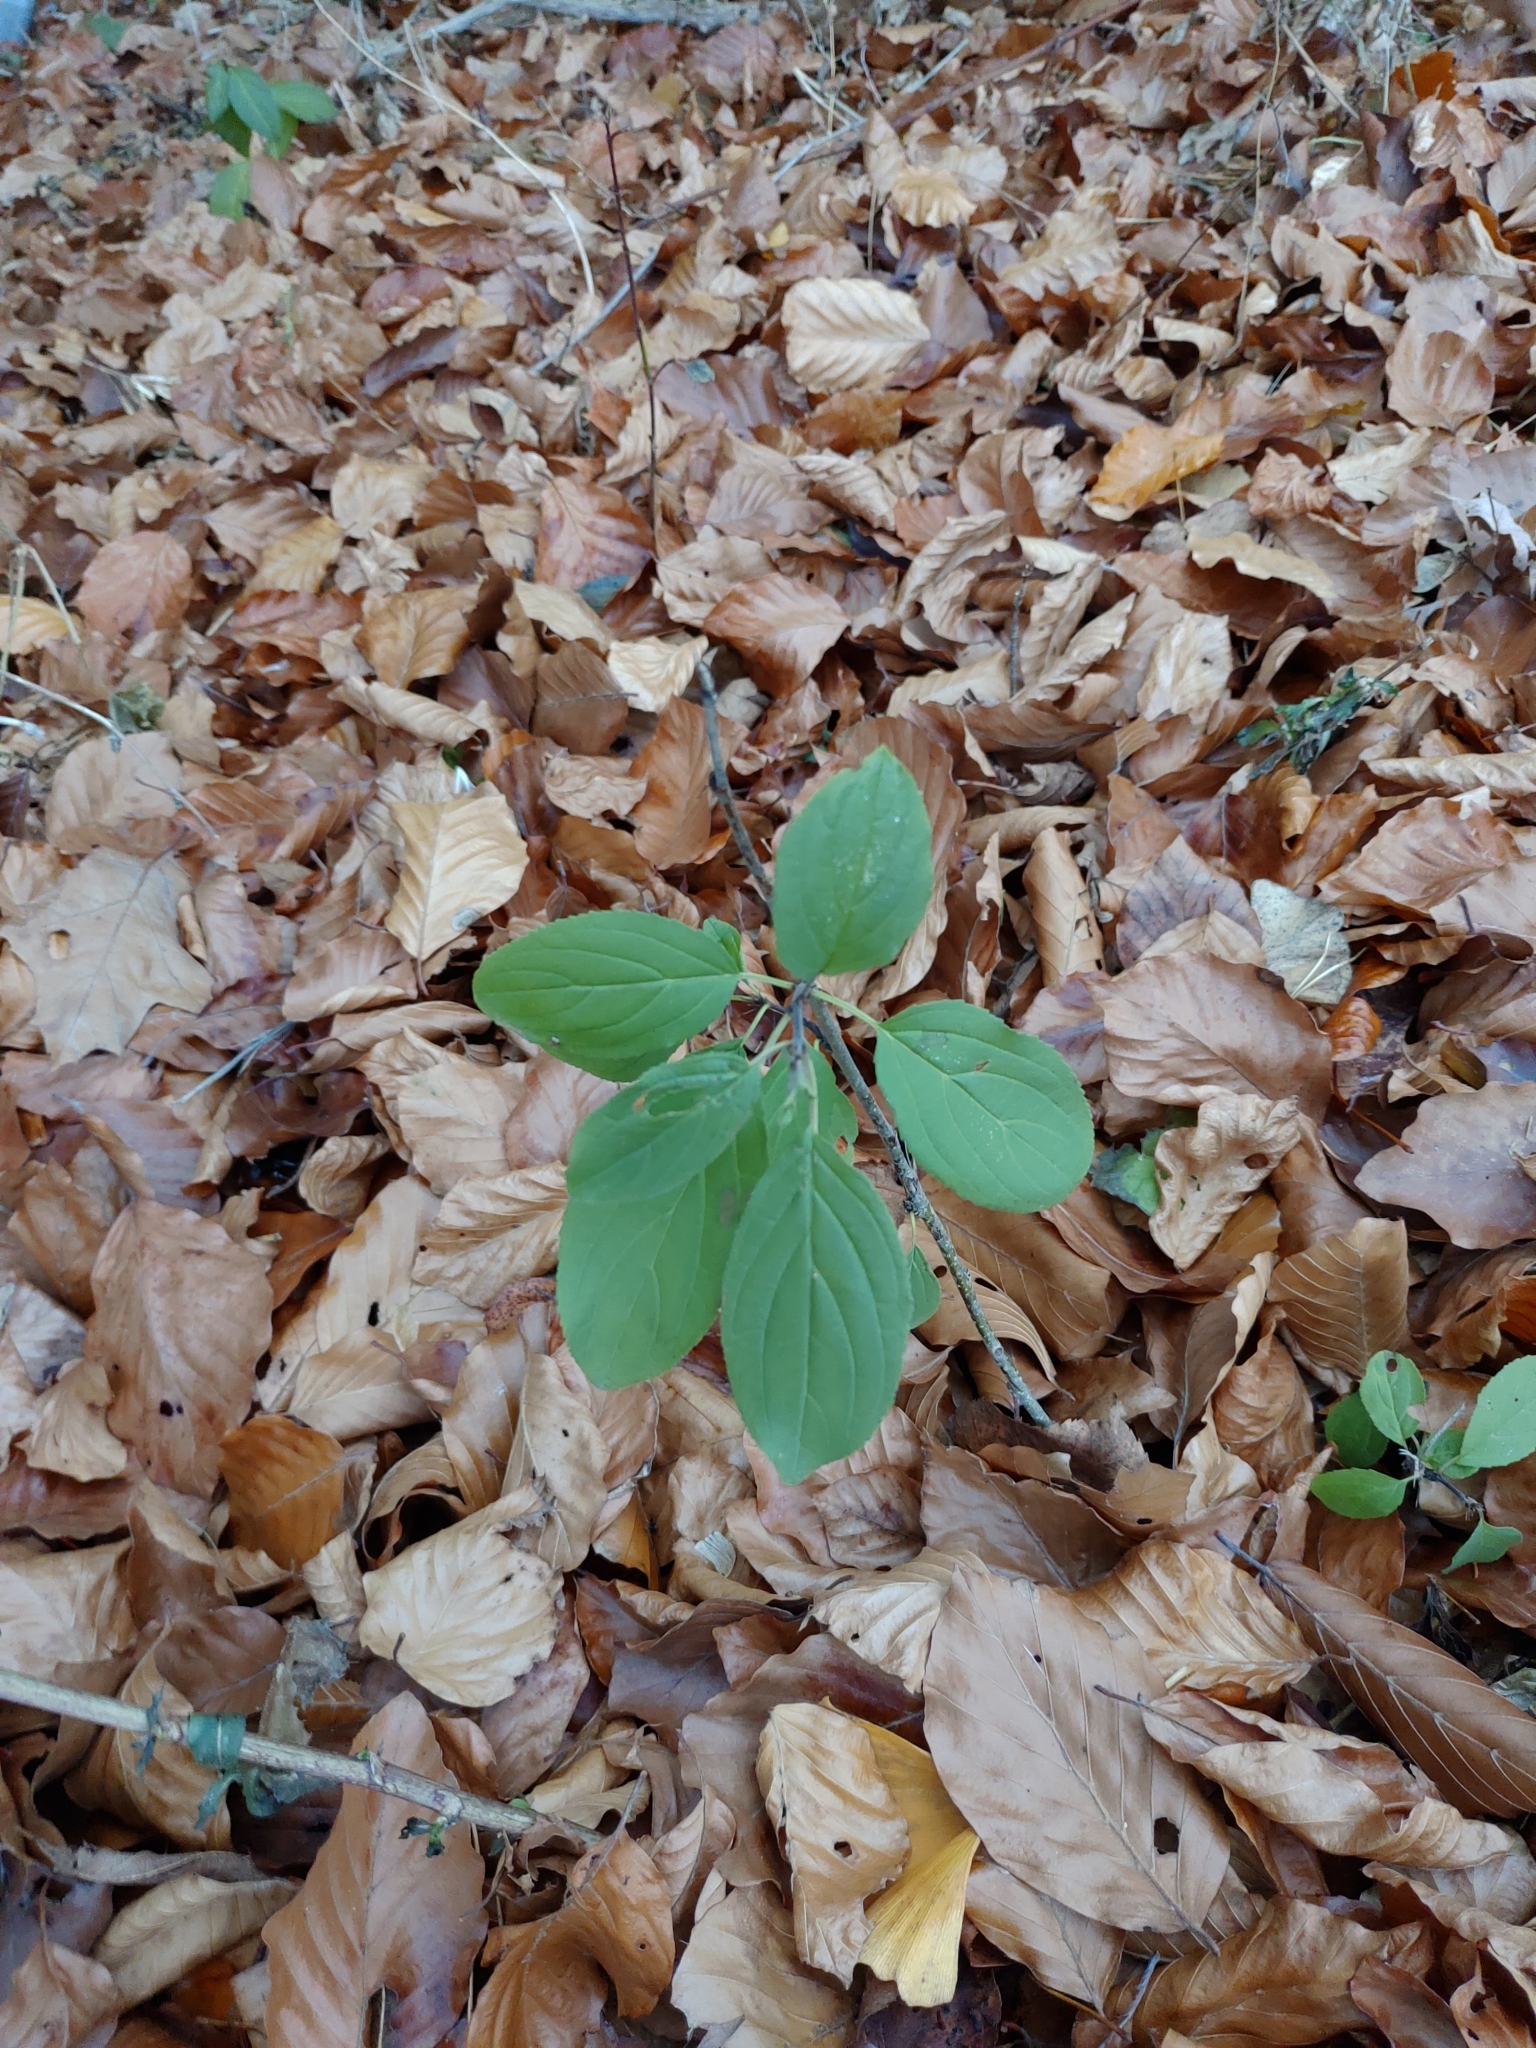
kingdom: Plantae
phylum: Tracheophyta
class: Magnoliopsida
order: Rosales
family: Rhamnaceae
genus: Rhamnus
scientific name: Rhamnus cathartica
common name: Common buckthorn
